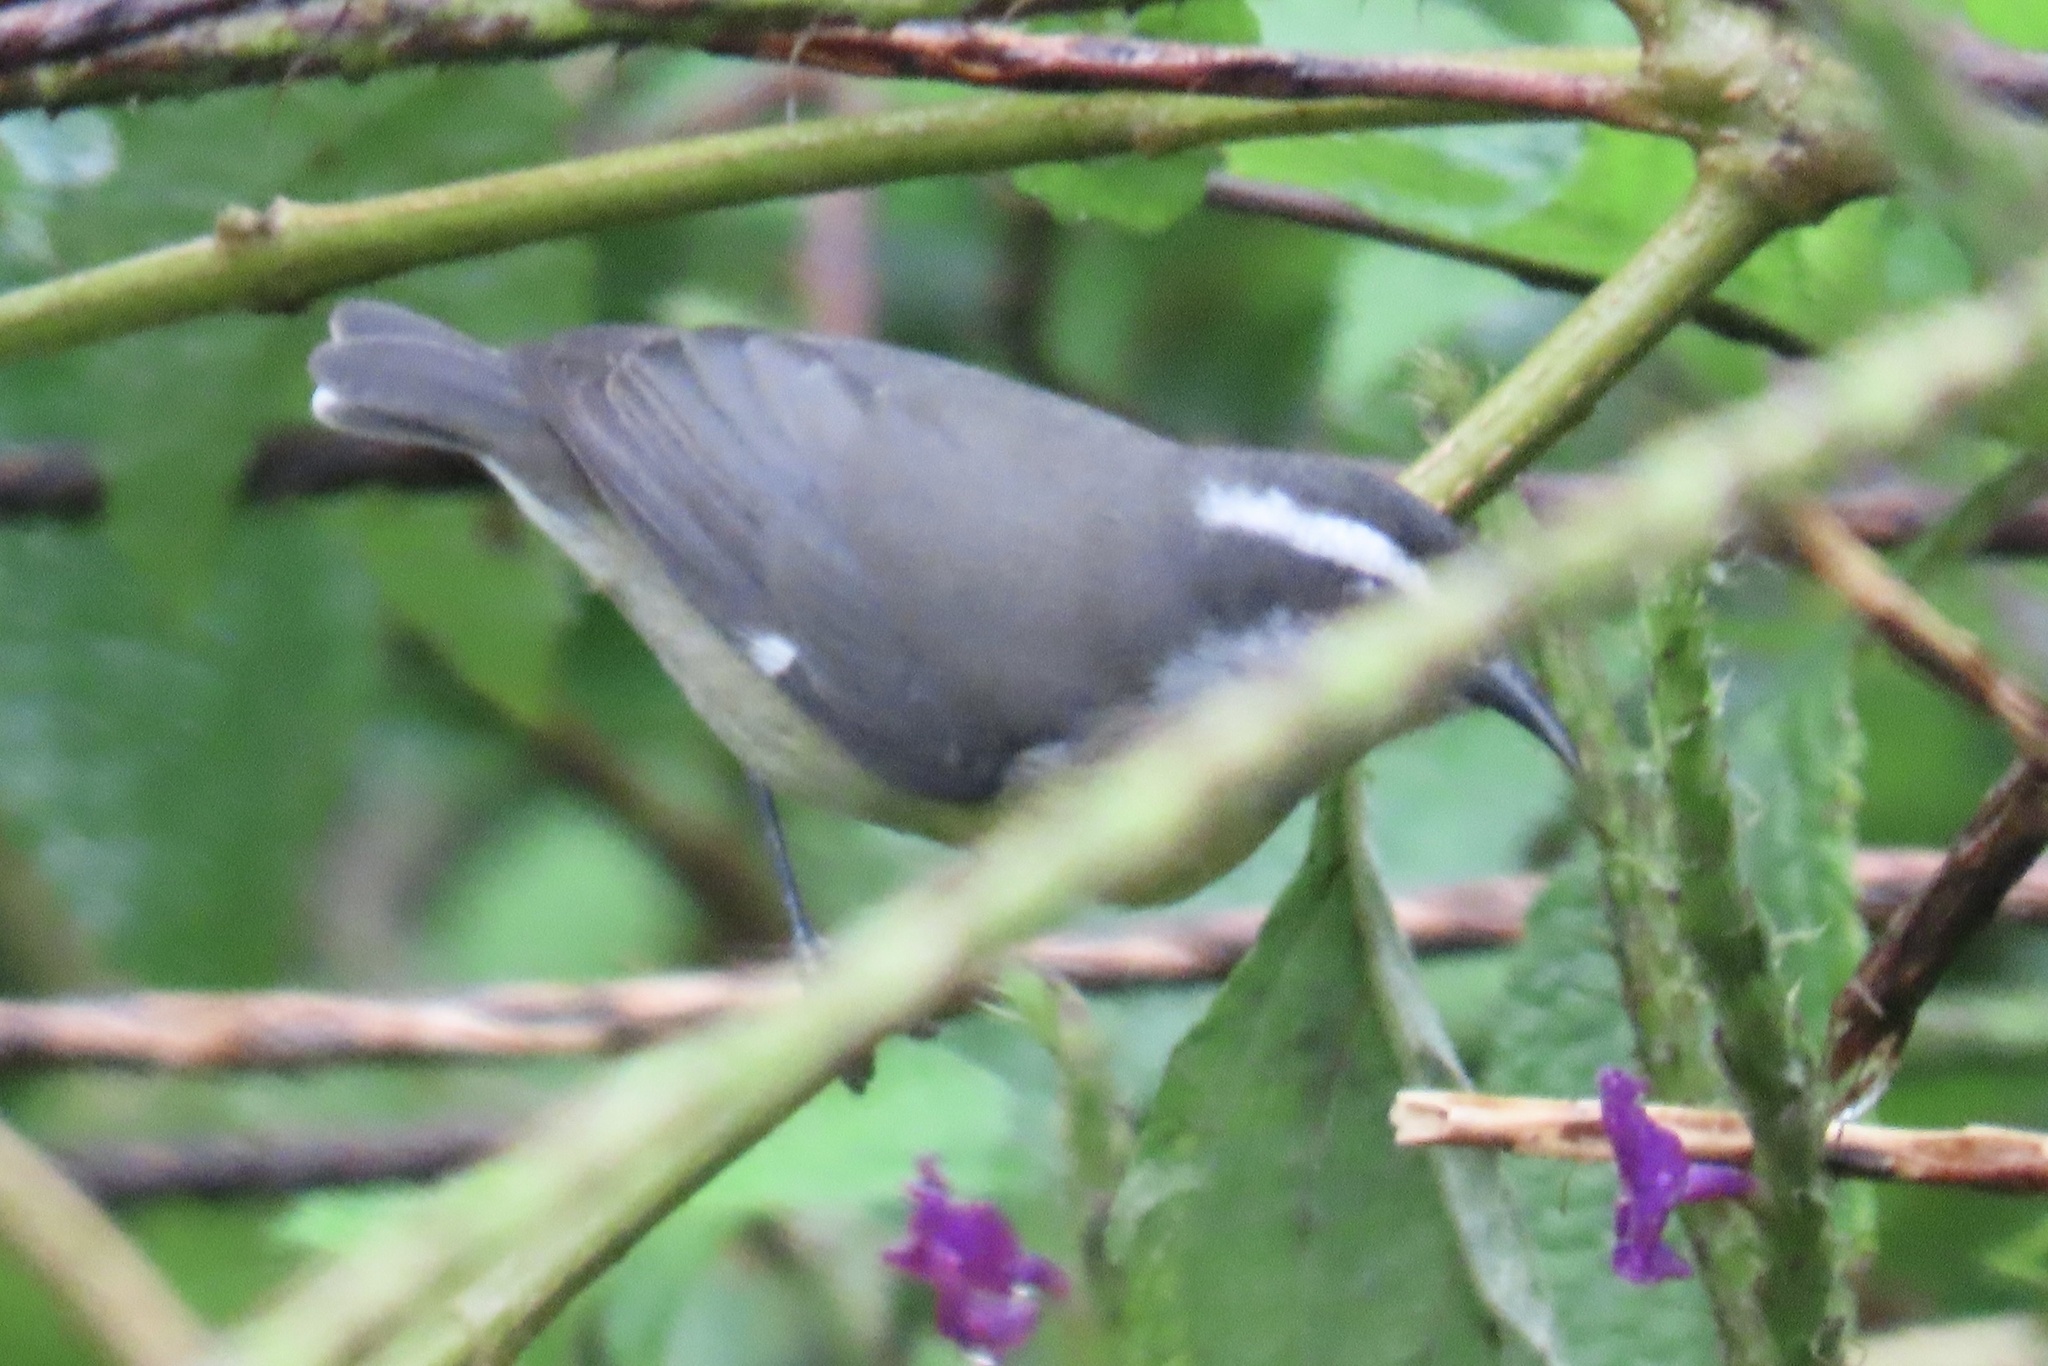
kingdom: Animalia
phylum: Chordata
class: Aves
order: Passeriformes
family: Thraupidae
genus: Coereba
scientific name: Coereba flaveola
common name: Bananaquit
